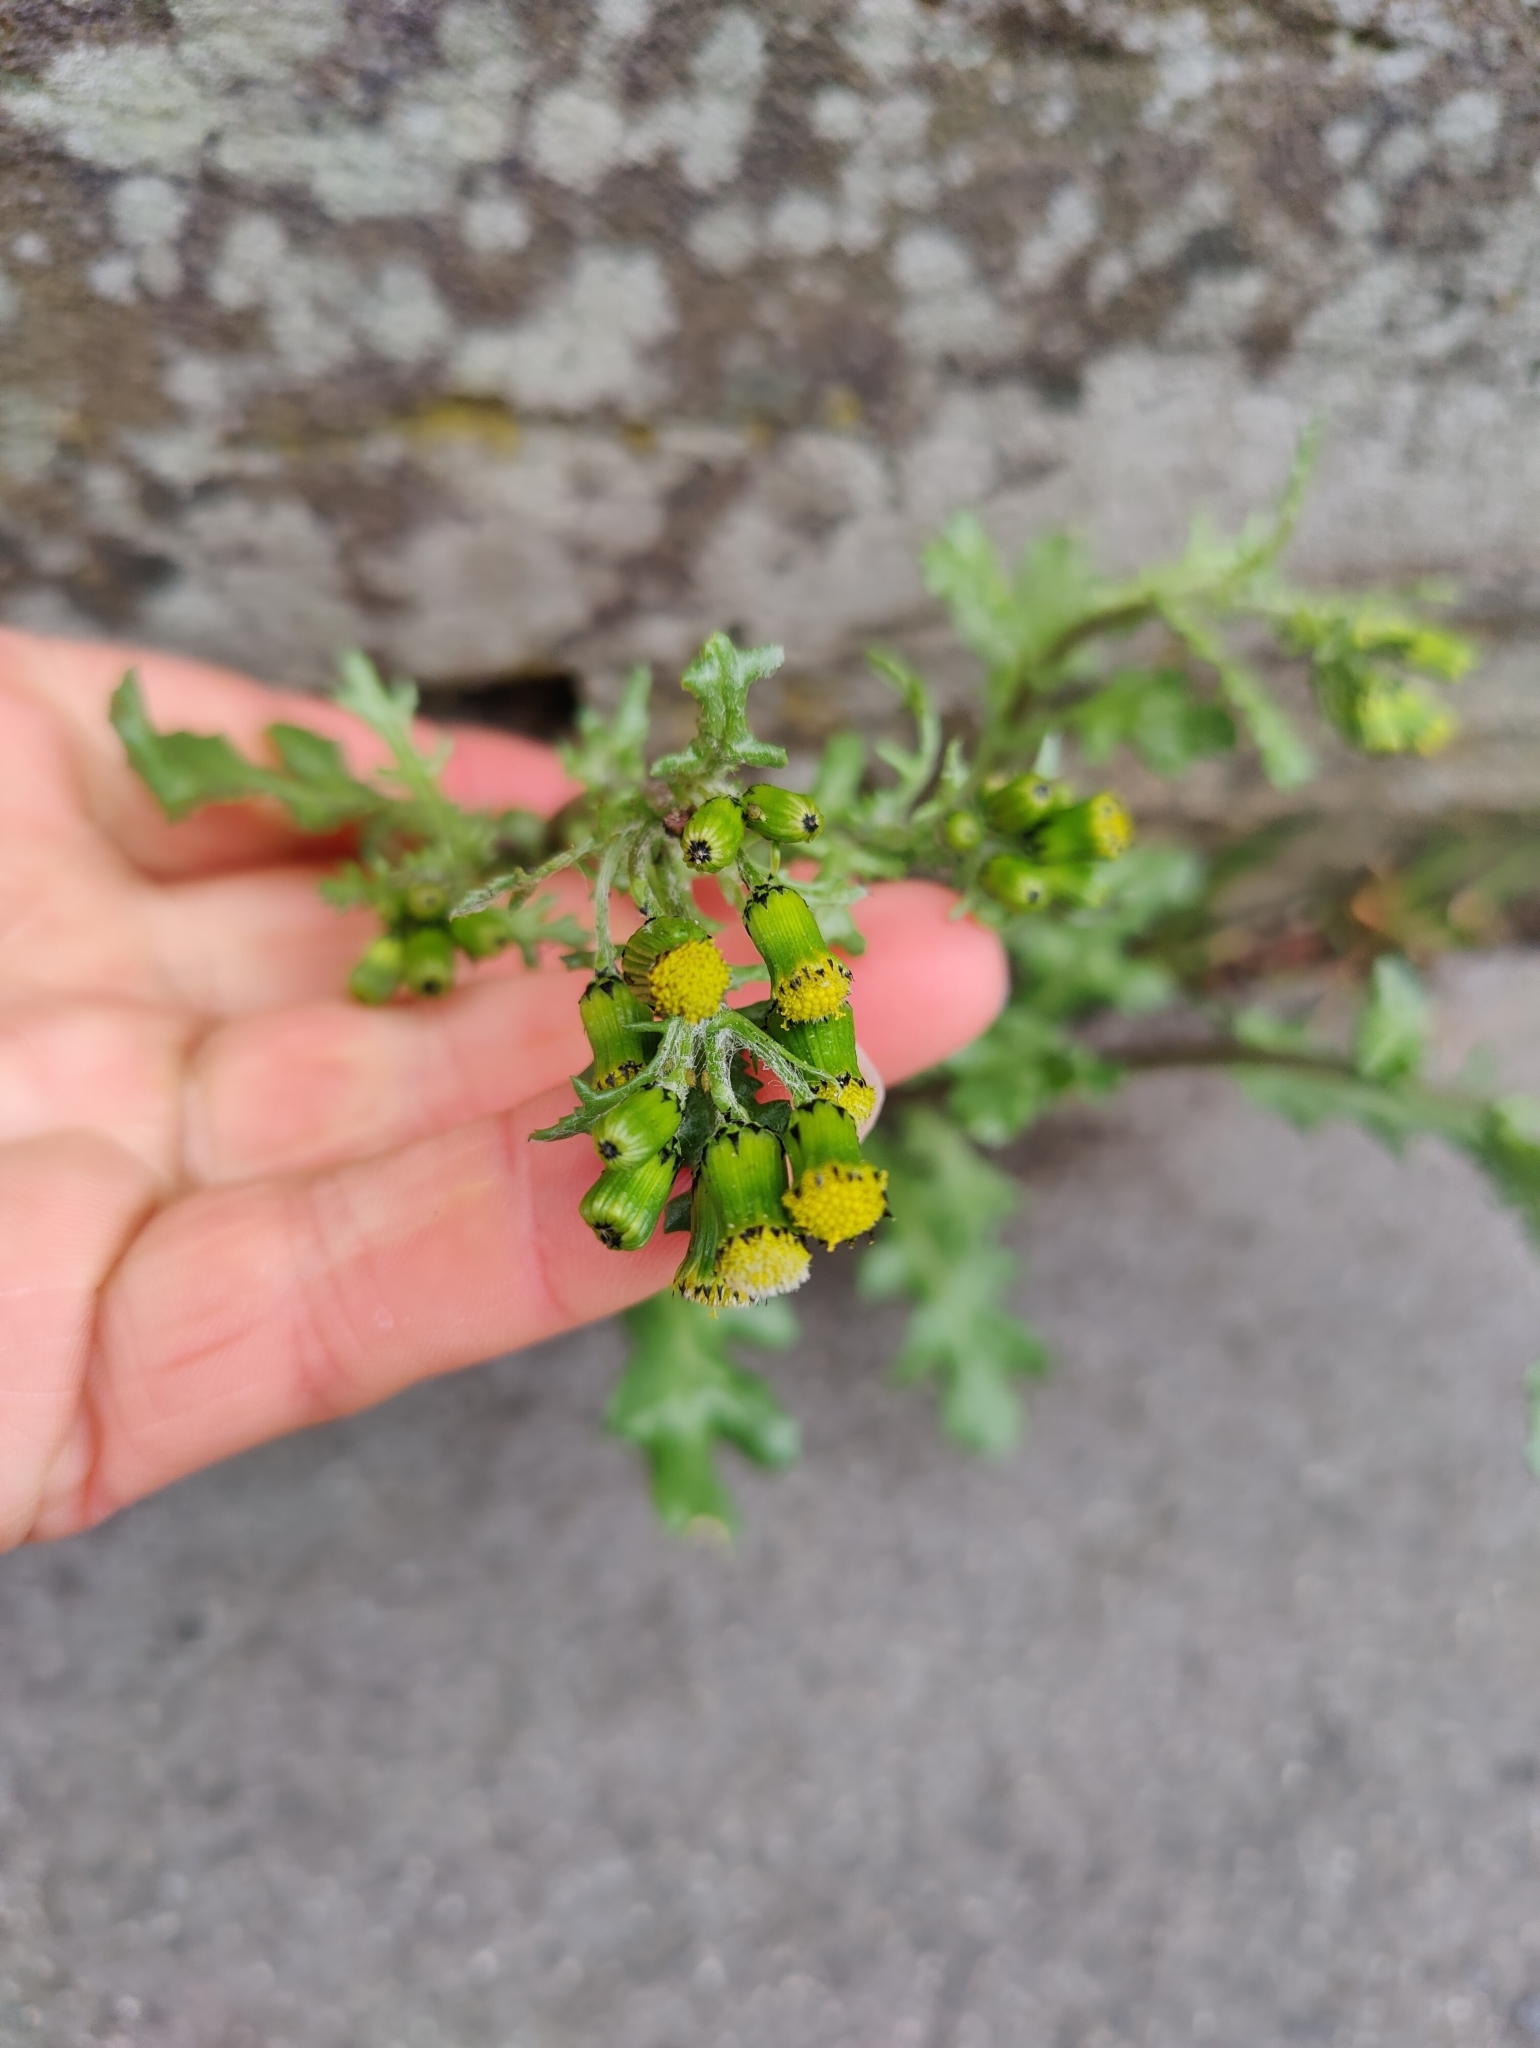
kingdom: Plantae
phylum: Tracheophyta
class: Magnoliopsida
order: Asterales
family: Asteraceae
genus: Senecio
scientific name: Senecio vulgaris
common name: Old-man-in-the-spring
